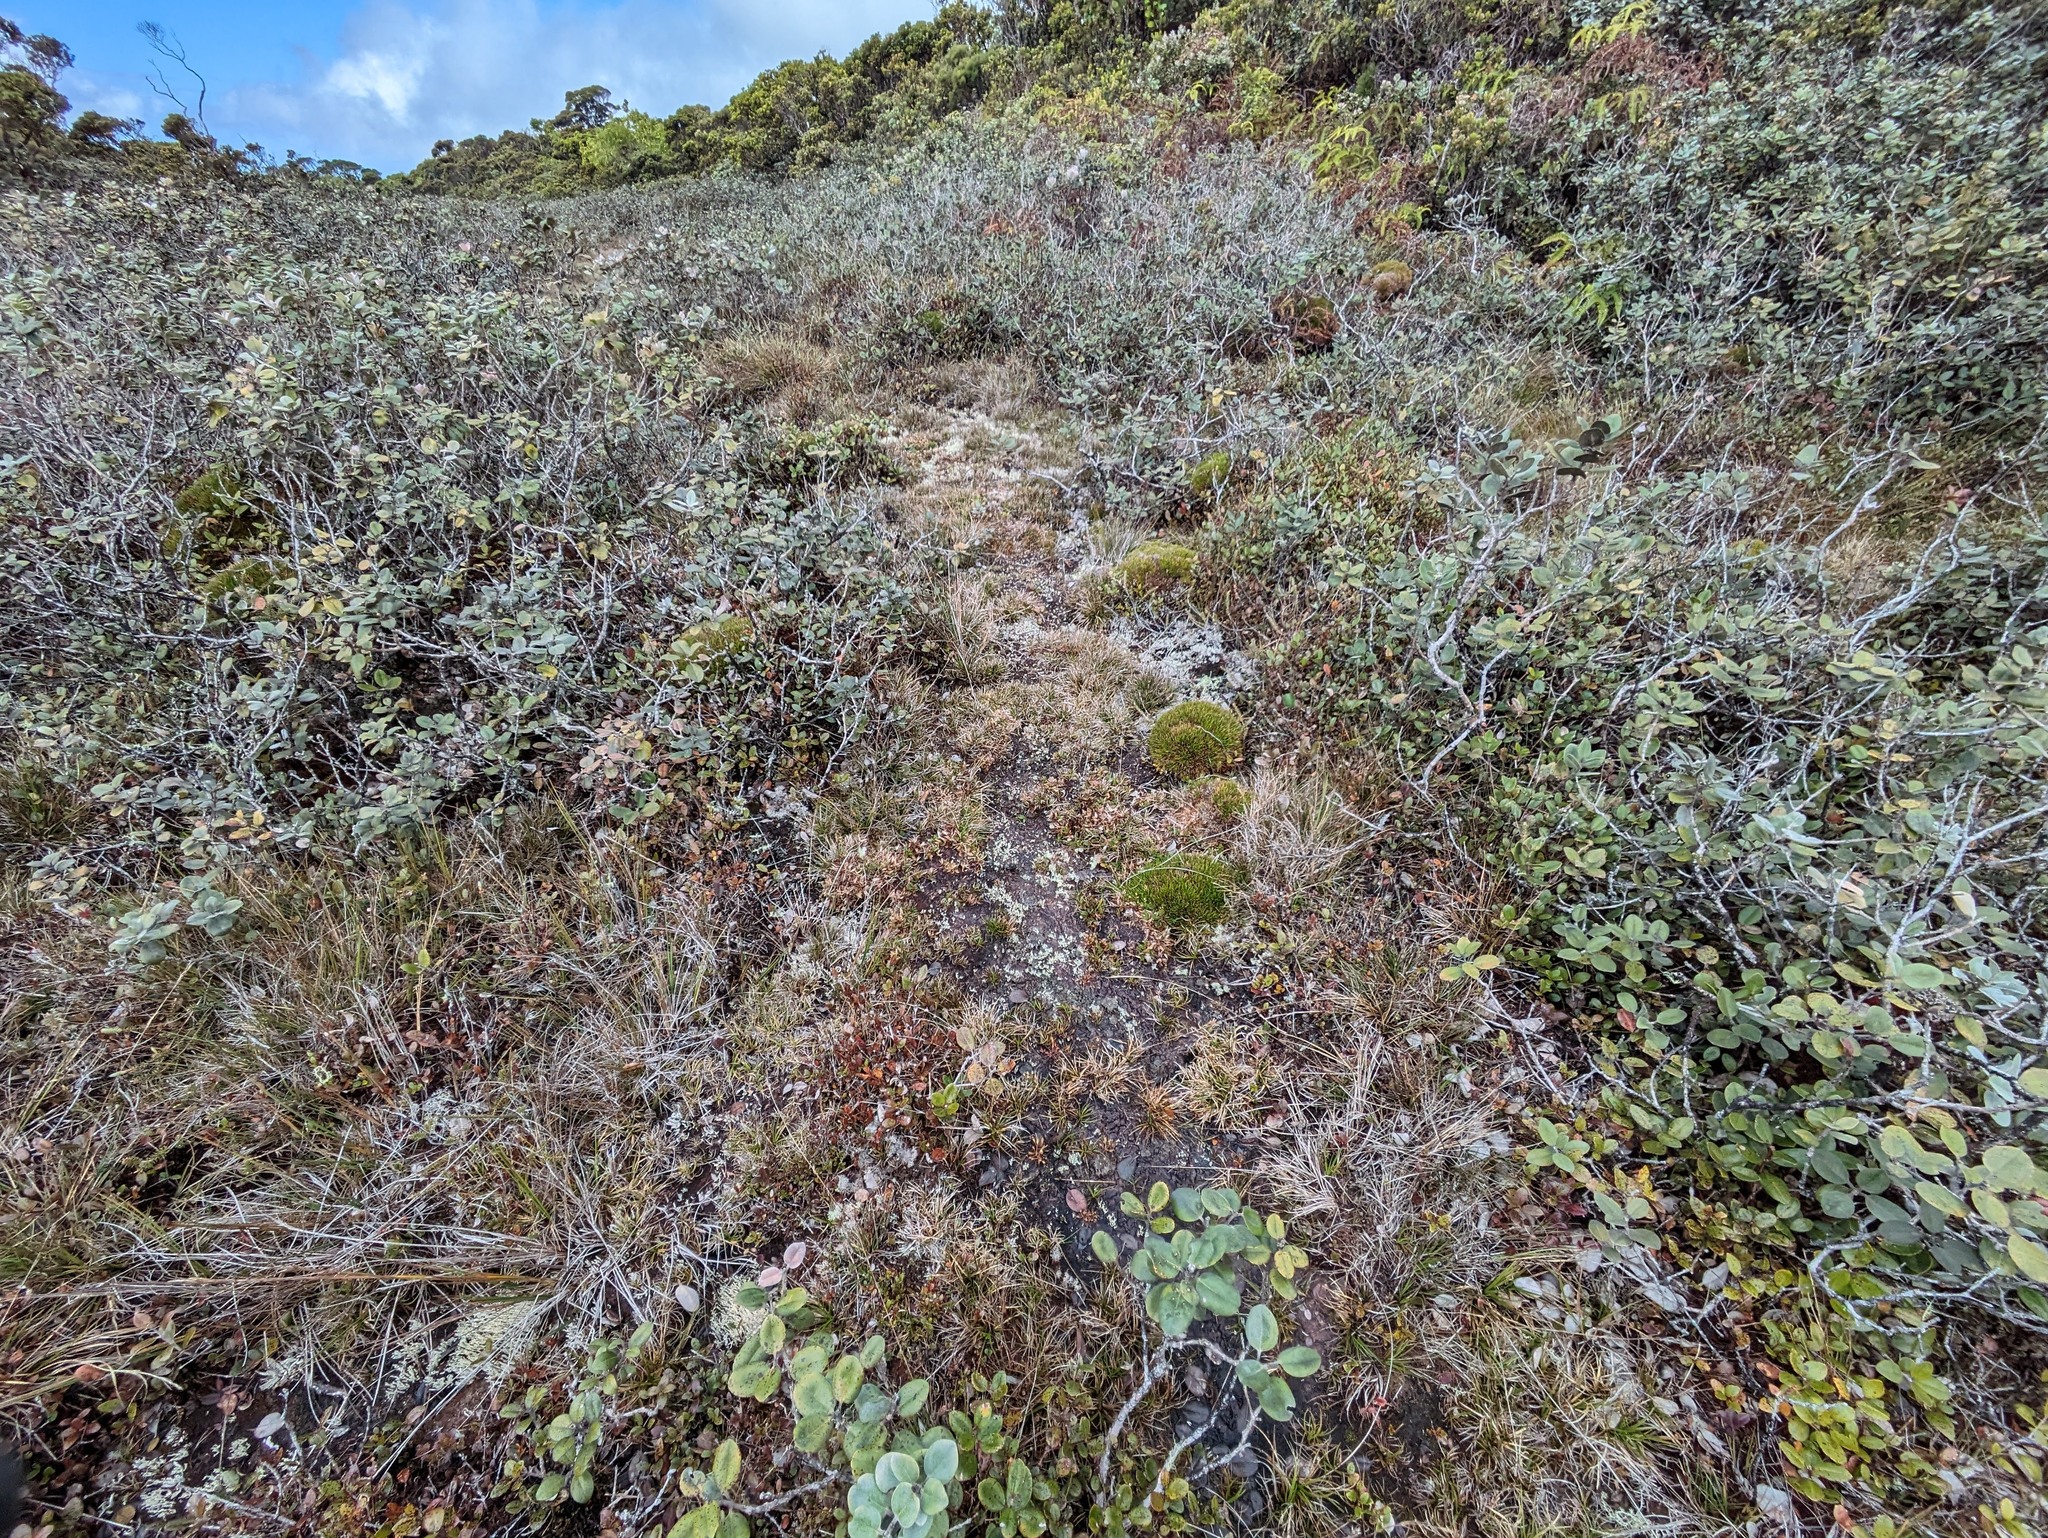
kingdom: Plantae
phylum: Tracheophyta
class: Magnoliopsida
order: Myrtales
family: Myrtaceae
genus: Metrosideros
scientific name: Metrosideros polymorpha
